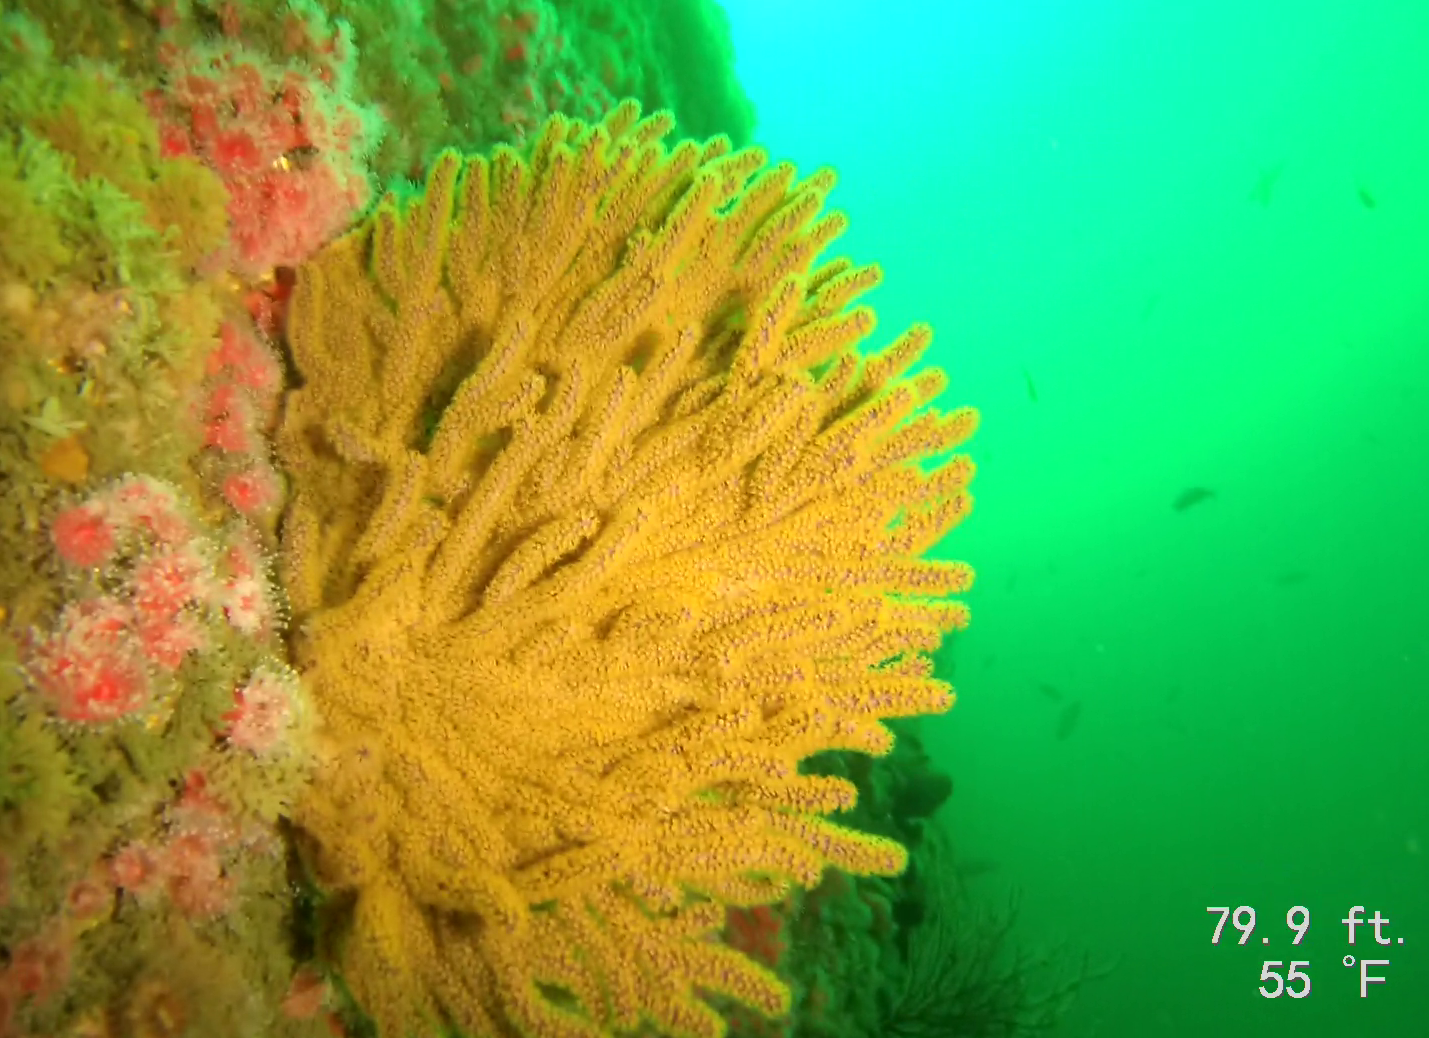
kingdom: Animalia
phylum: Cnidaria
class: Anthozoa
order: Malacalcyonacea
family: Plexauridae
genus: Muricea
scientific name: Muricea californica
